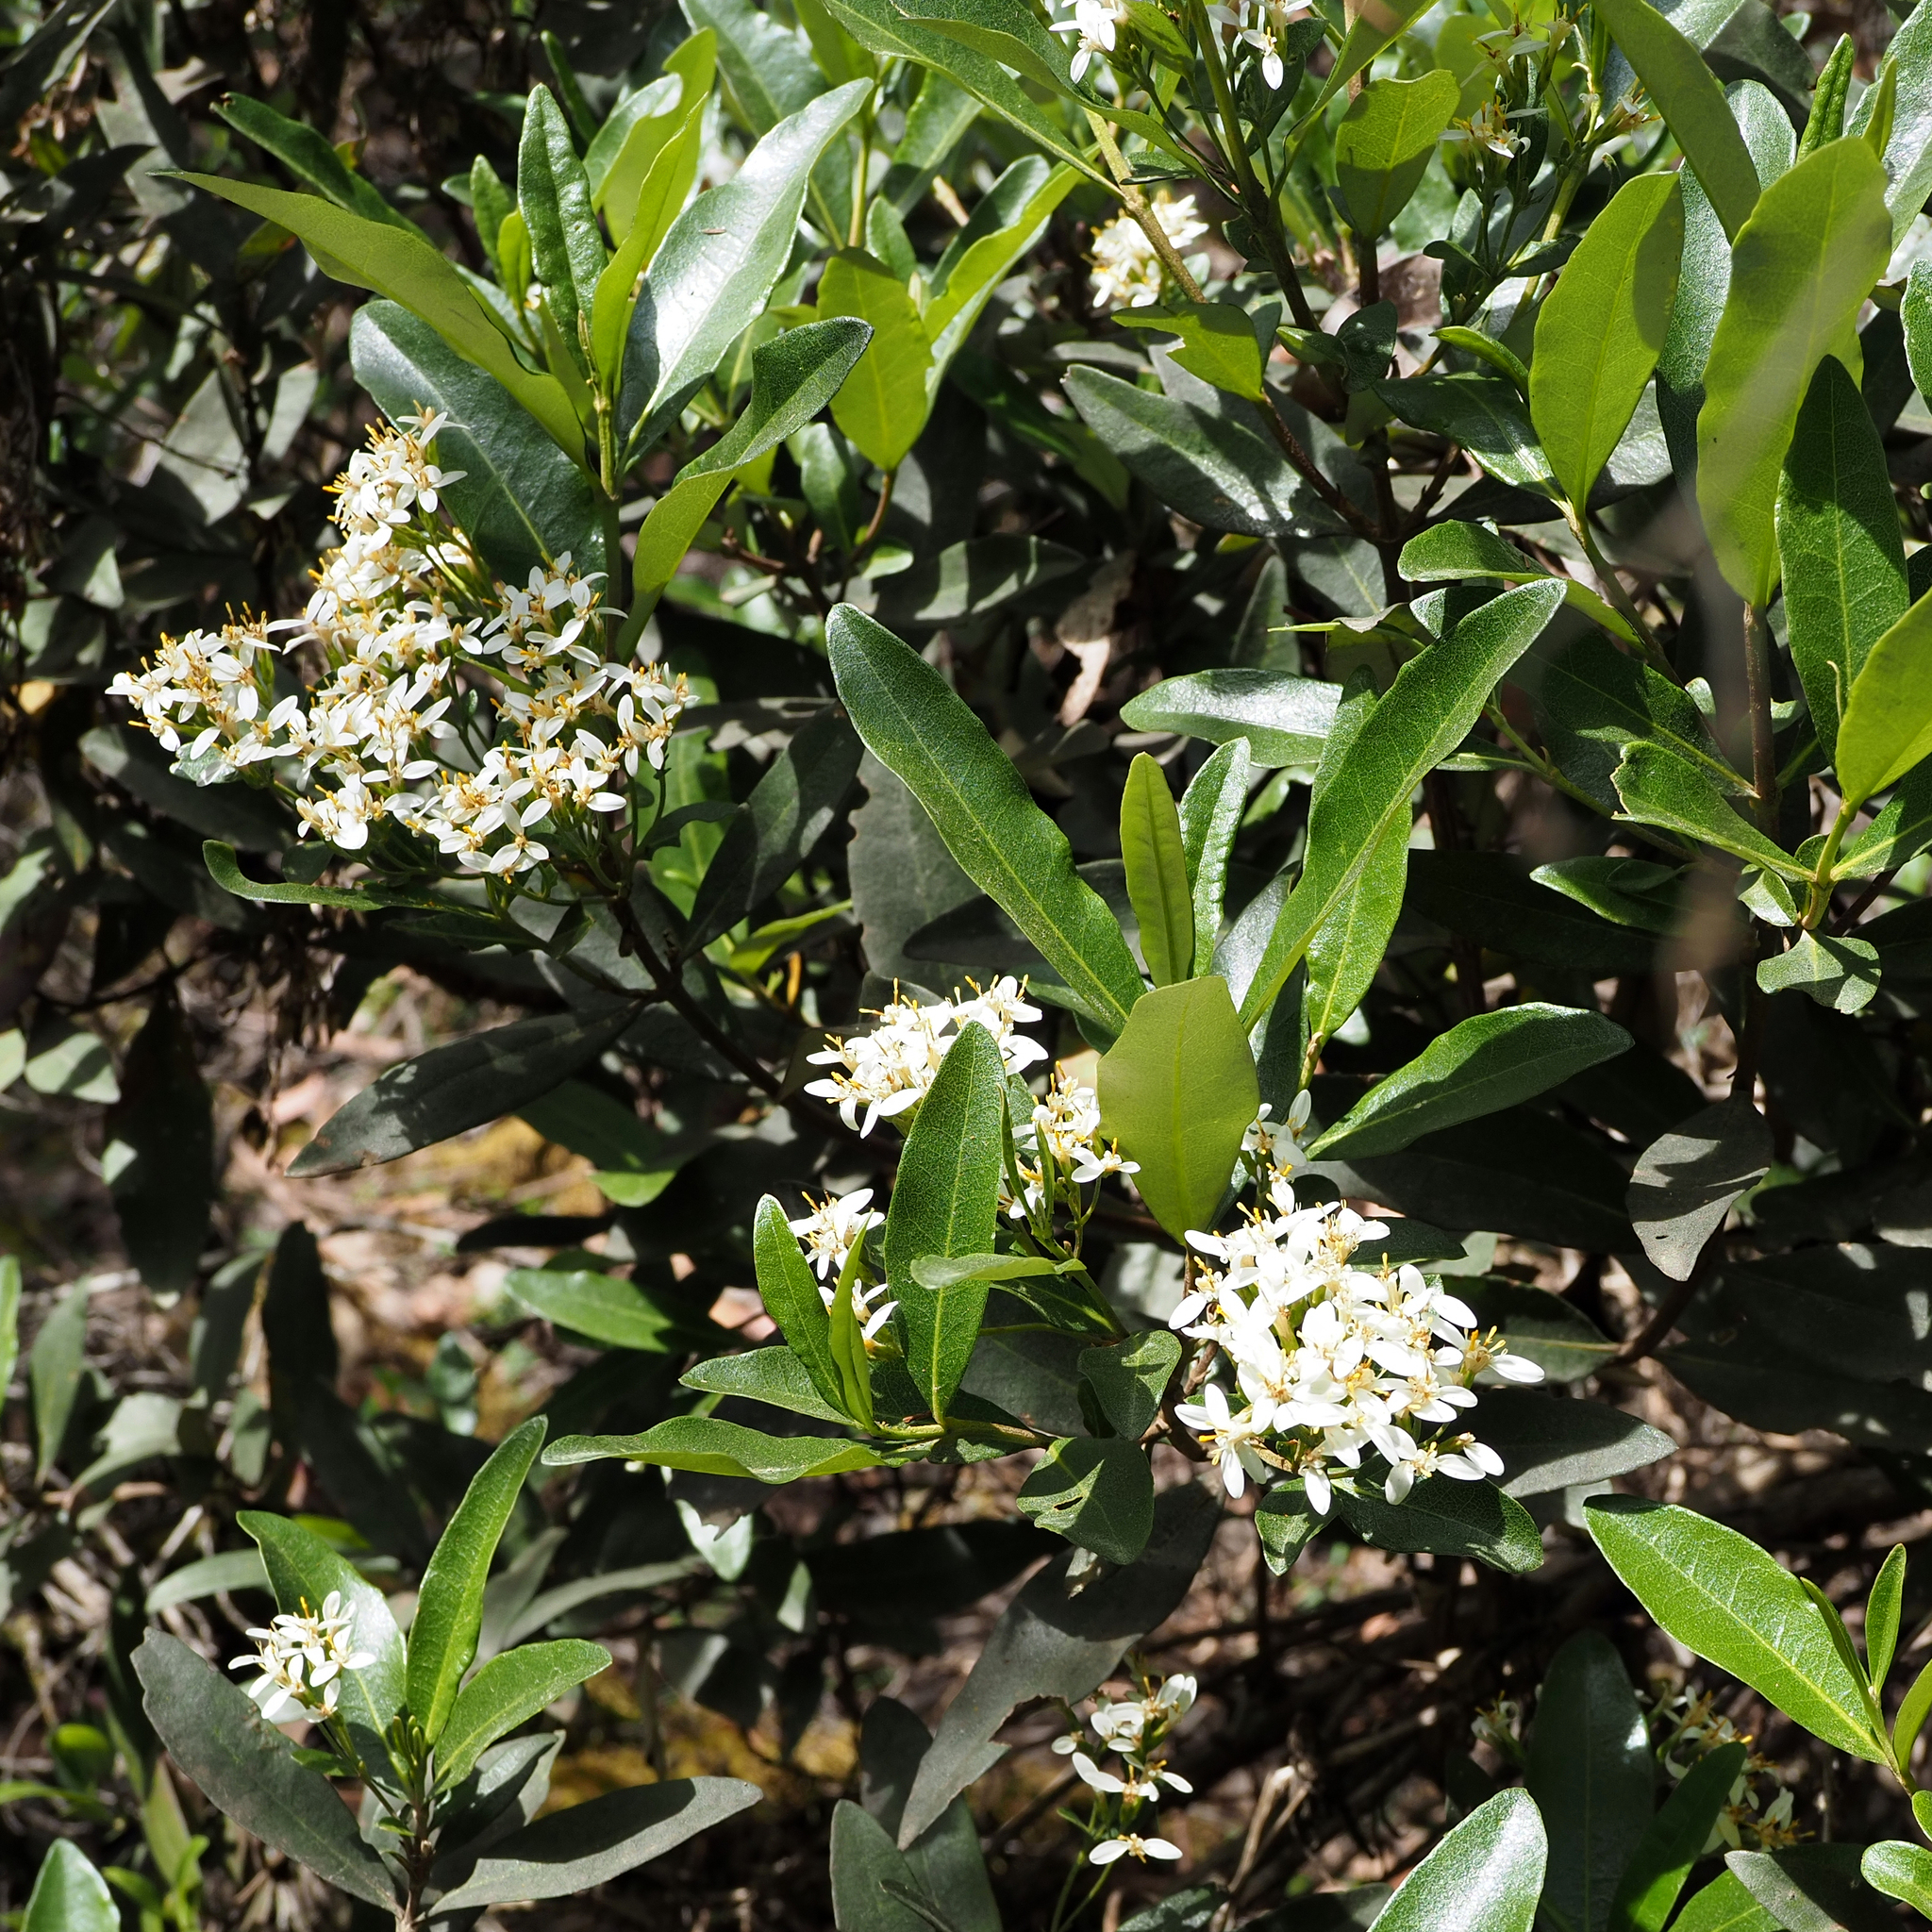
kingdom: Plantae
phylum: Tracheophyta
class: Magnoliopsida
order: Asterales
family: Asteraceae
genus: Olearia
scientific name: Olearia viscosa
